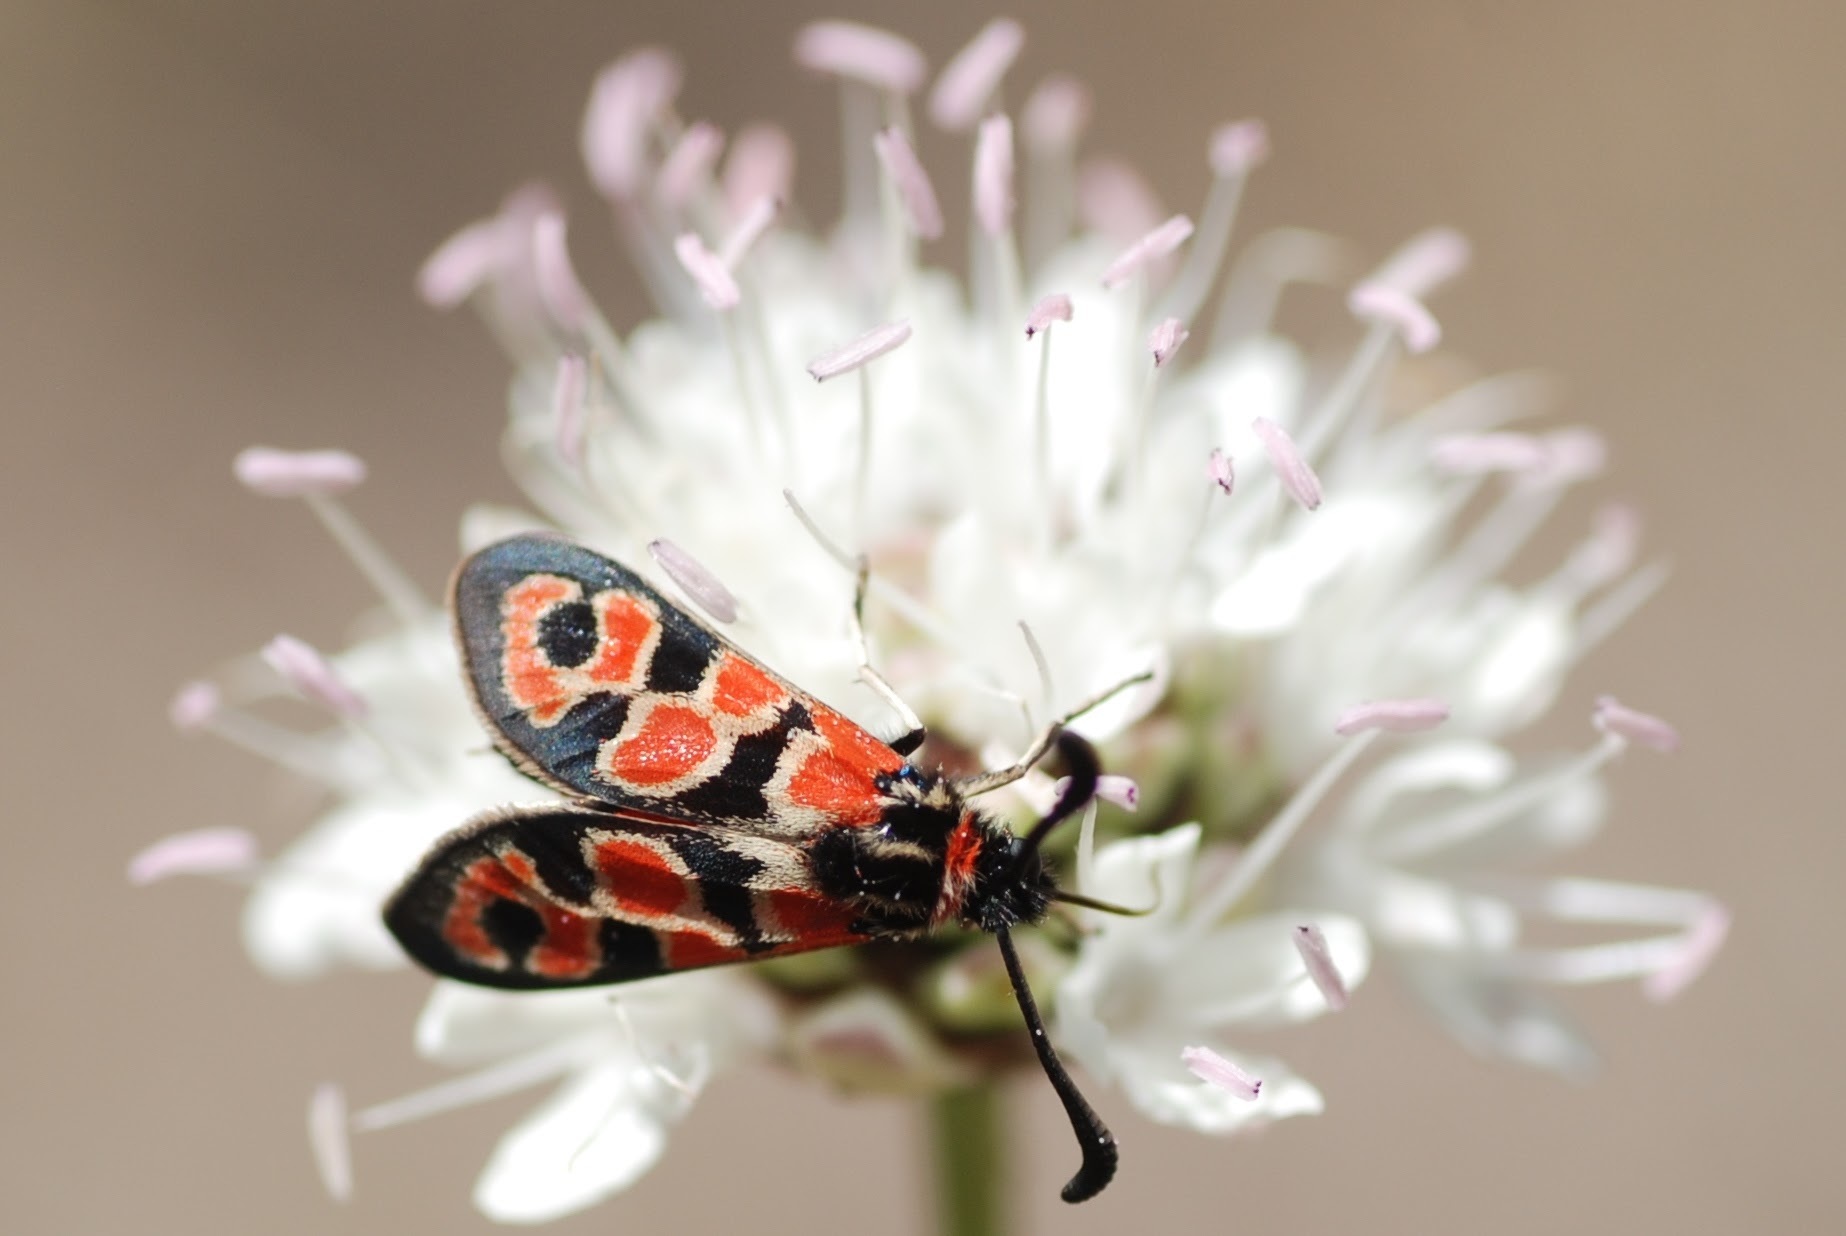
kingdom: Animalia
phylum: Arthropoda
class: Insecta
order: Lepidoptera
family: Zygaenidae
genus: Zygaena
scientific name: Zygaena fausta
